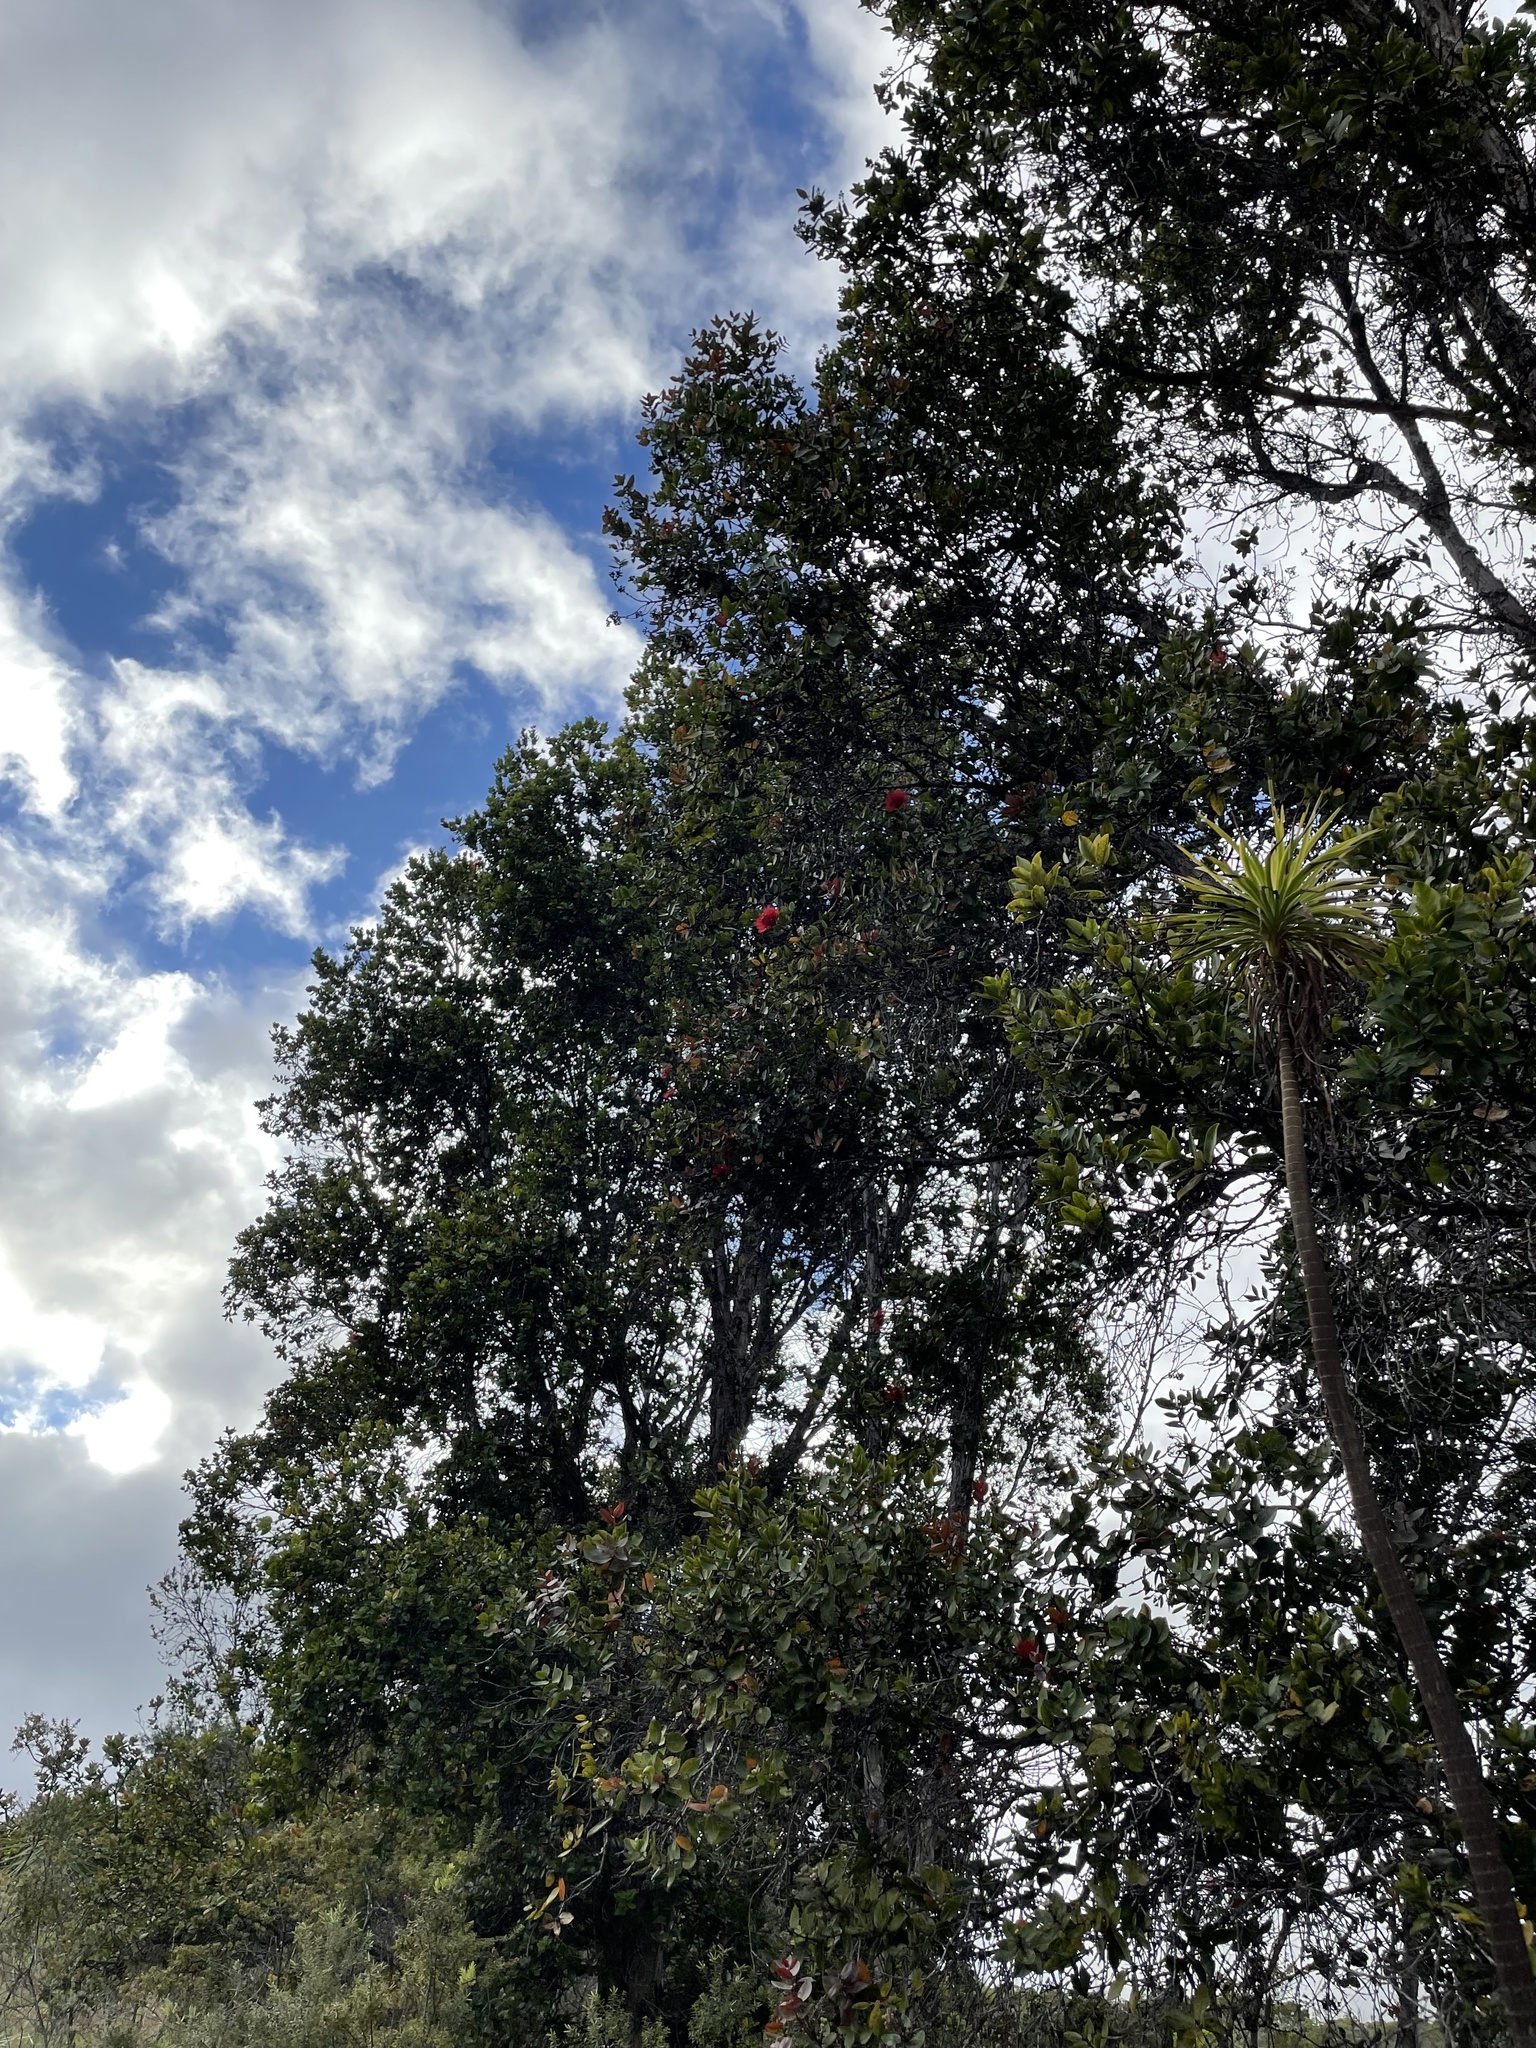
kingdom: Plantae
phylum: Tracheophyta
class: Magnoliopsida
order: Myrtales
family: Myrtaceae
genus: Metrosideros
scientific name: Metrosideros polymorpha
